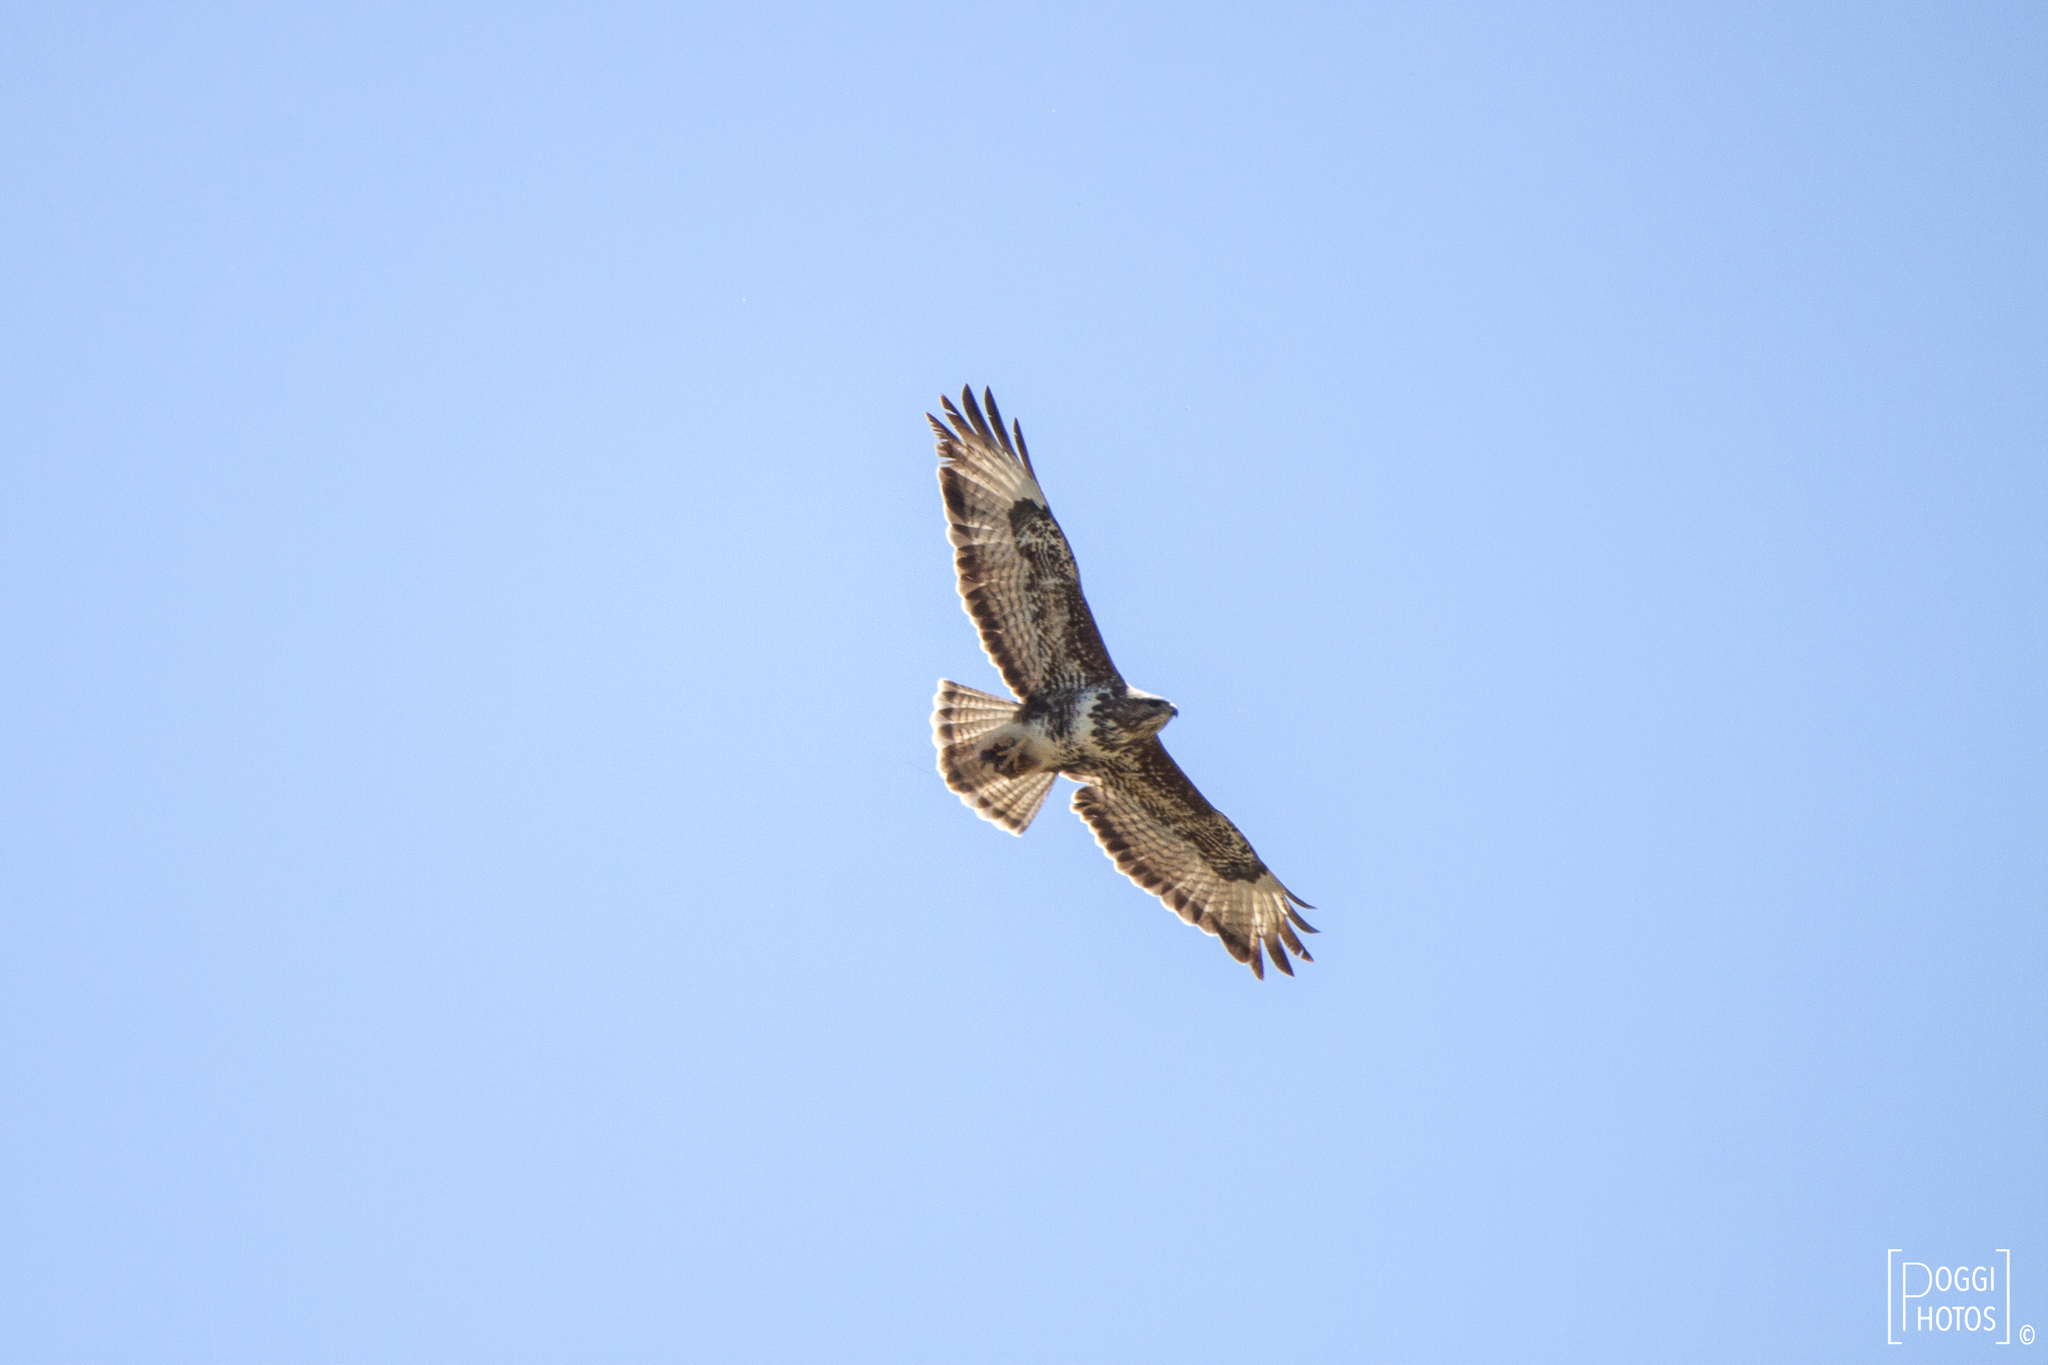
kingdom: Animalia
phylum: Chordata
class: Aves
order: Accipitriformes
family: Accipitridae
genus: Buteo
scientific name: Buteo buteo
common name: Common buzzard
